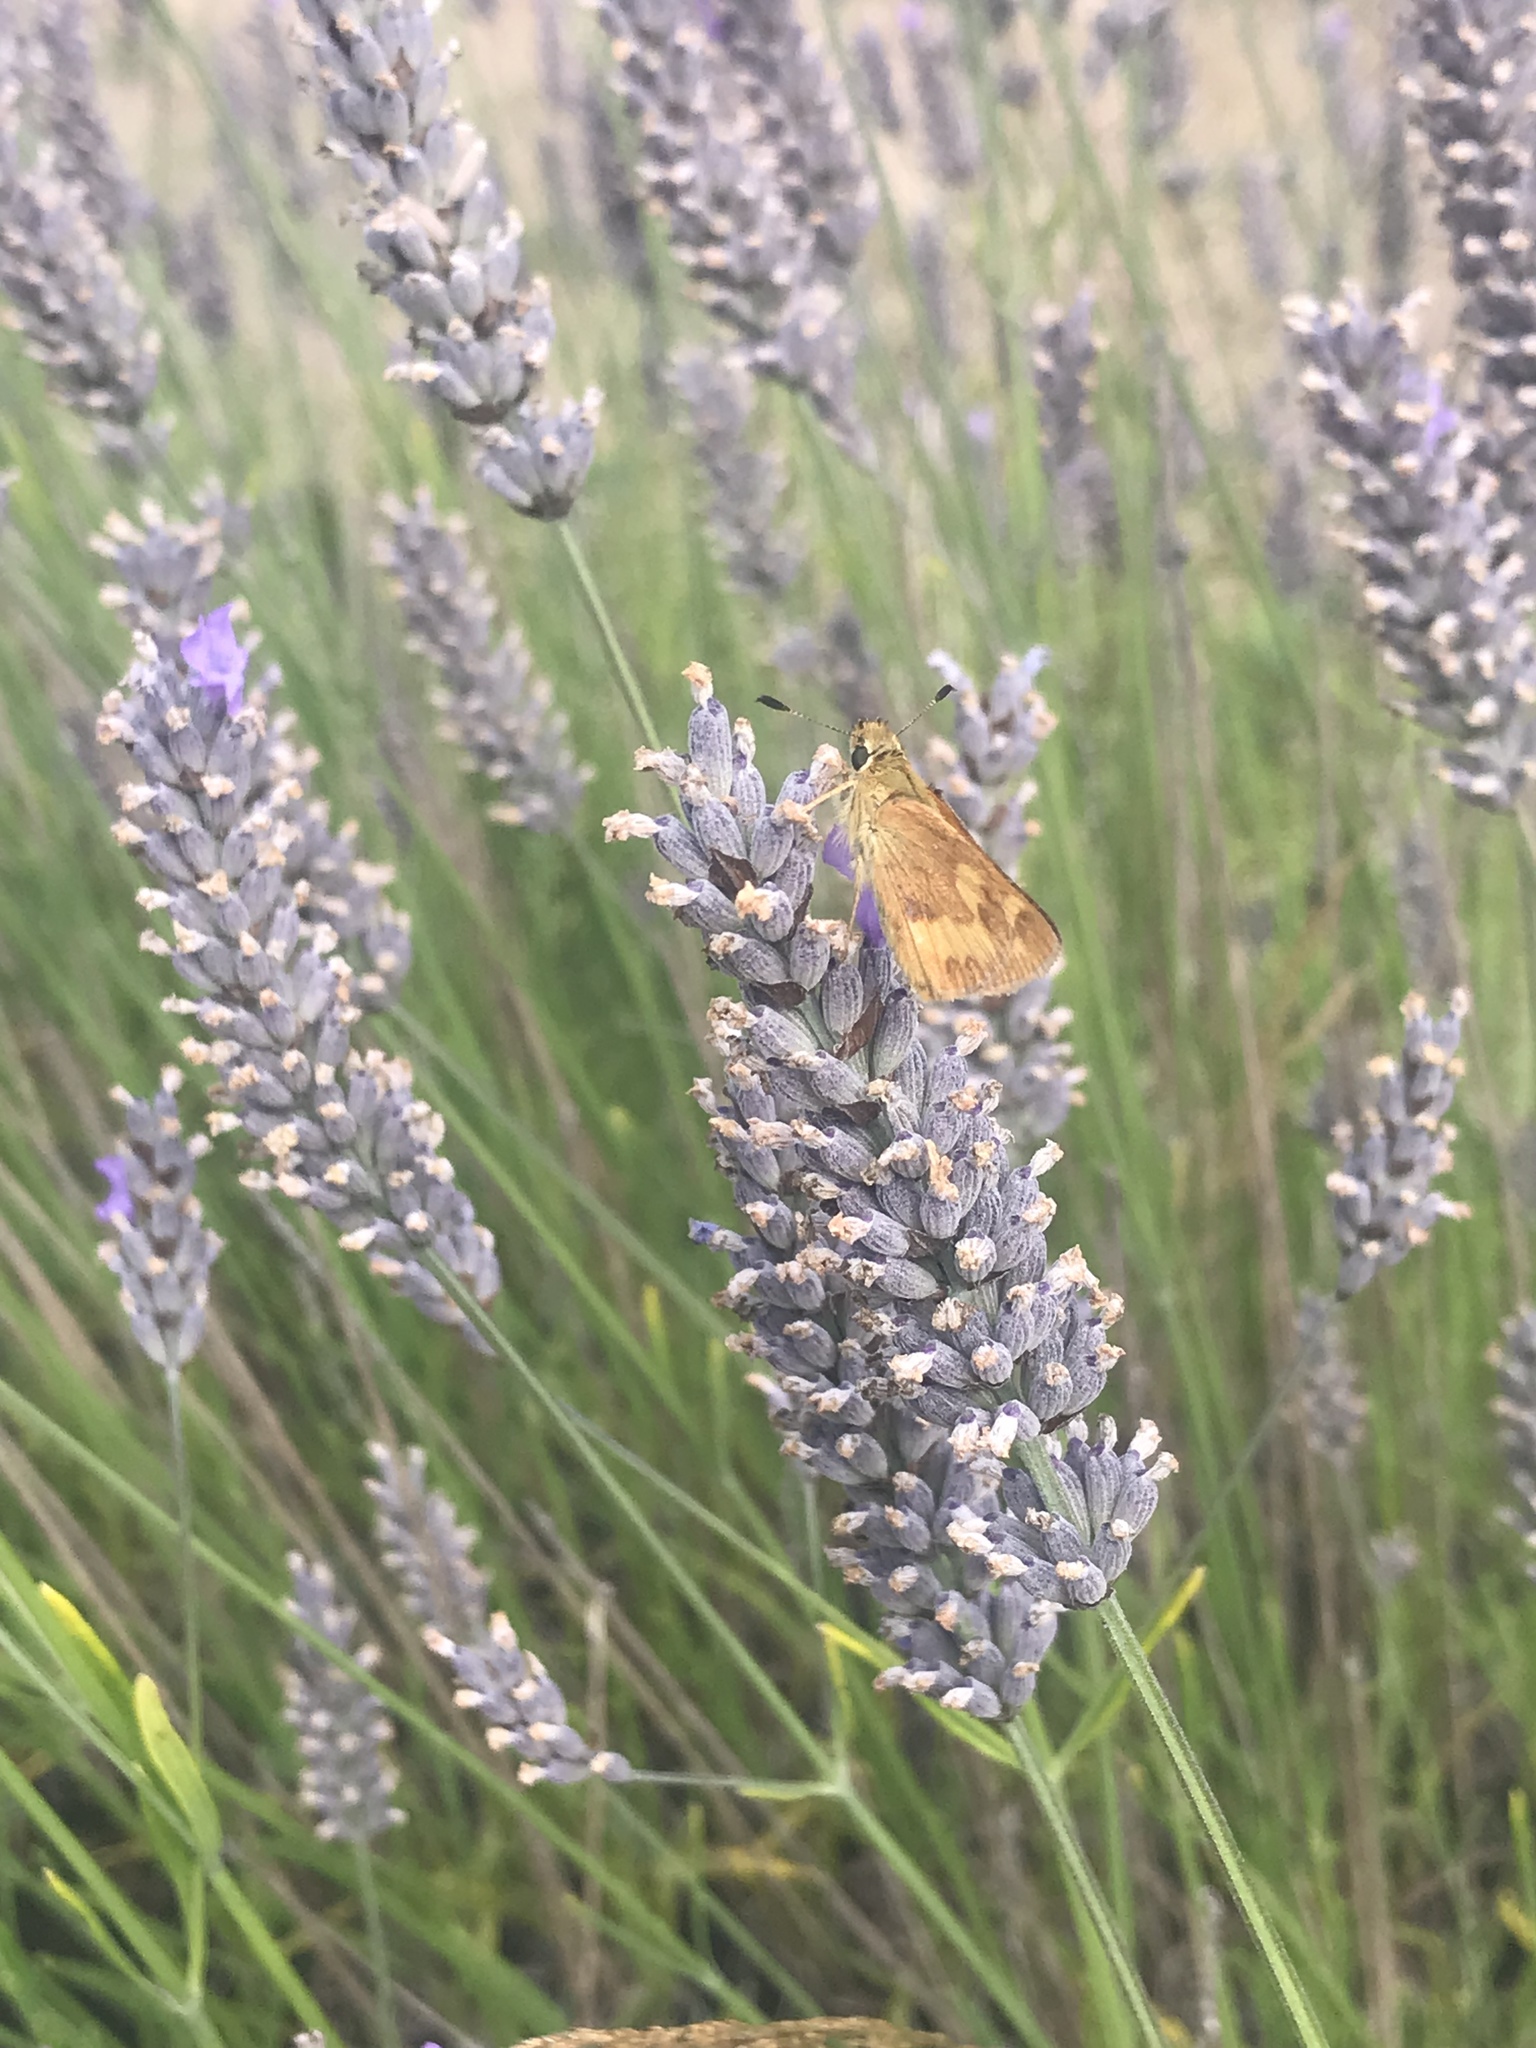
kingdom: Animalia
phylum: Arthropoda
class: Insecta
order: Lepidoptera
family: Hesperiidae
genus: Ochlodes
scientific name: Ochlodes sylvanoides
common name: Woodland skipper
